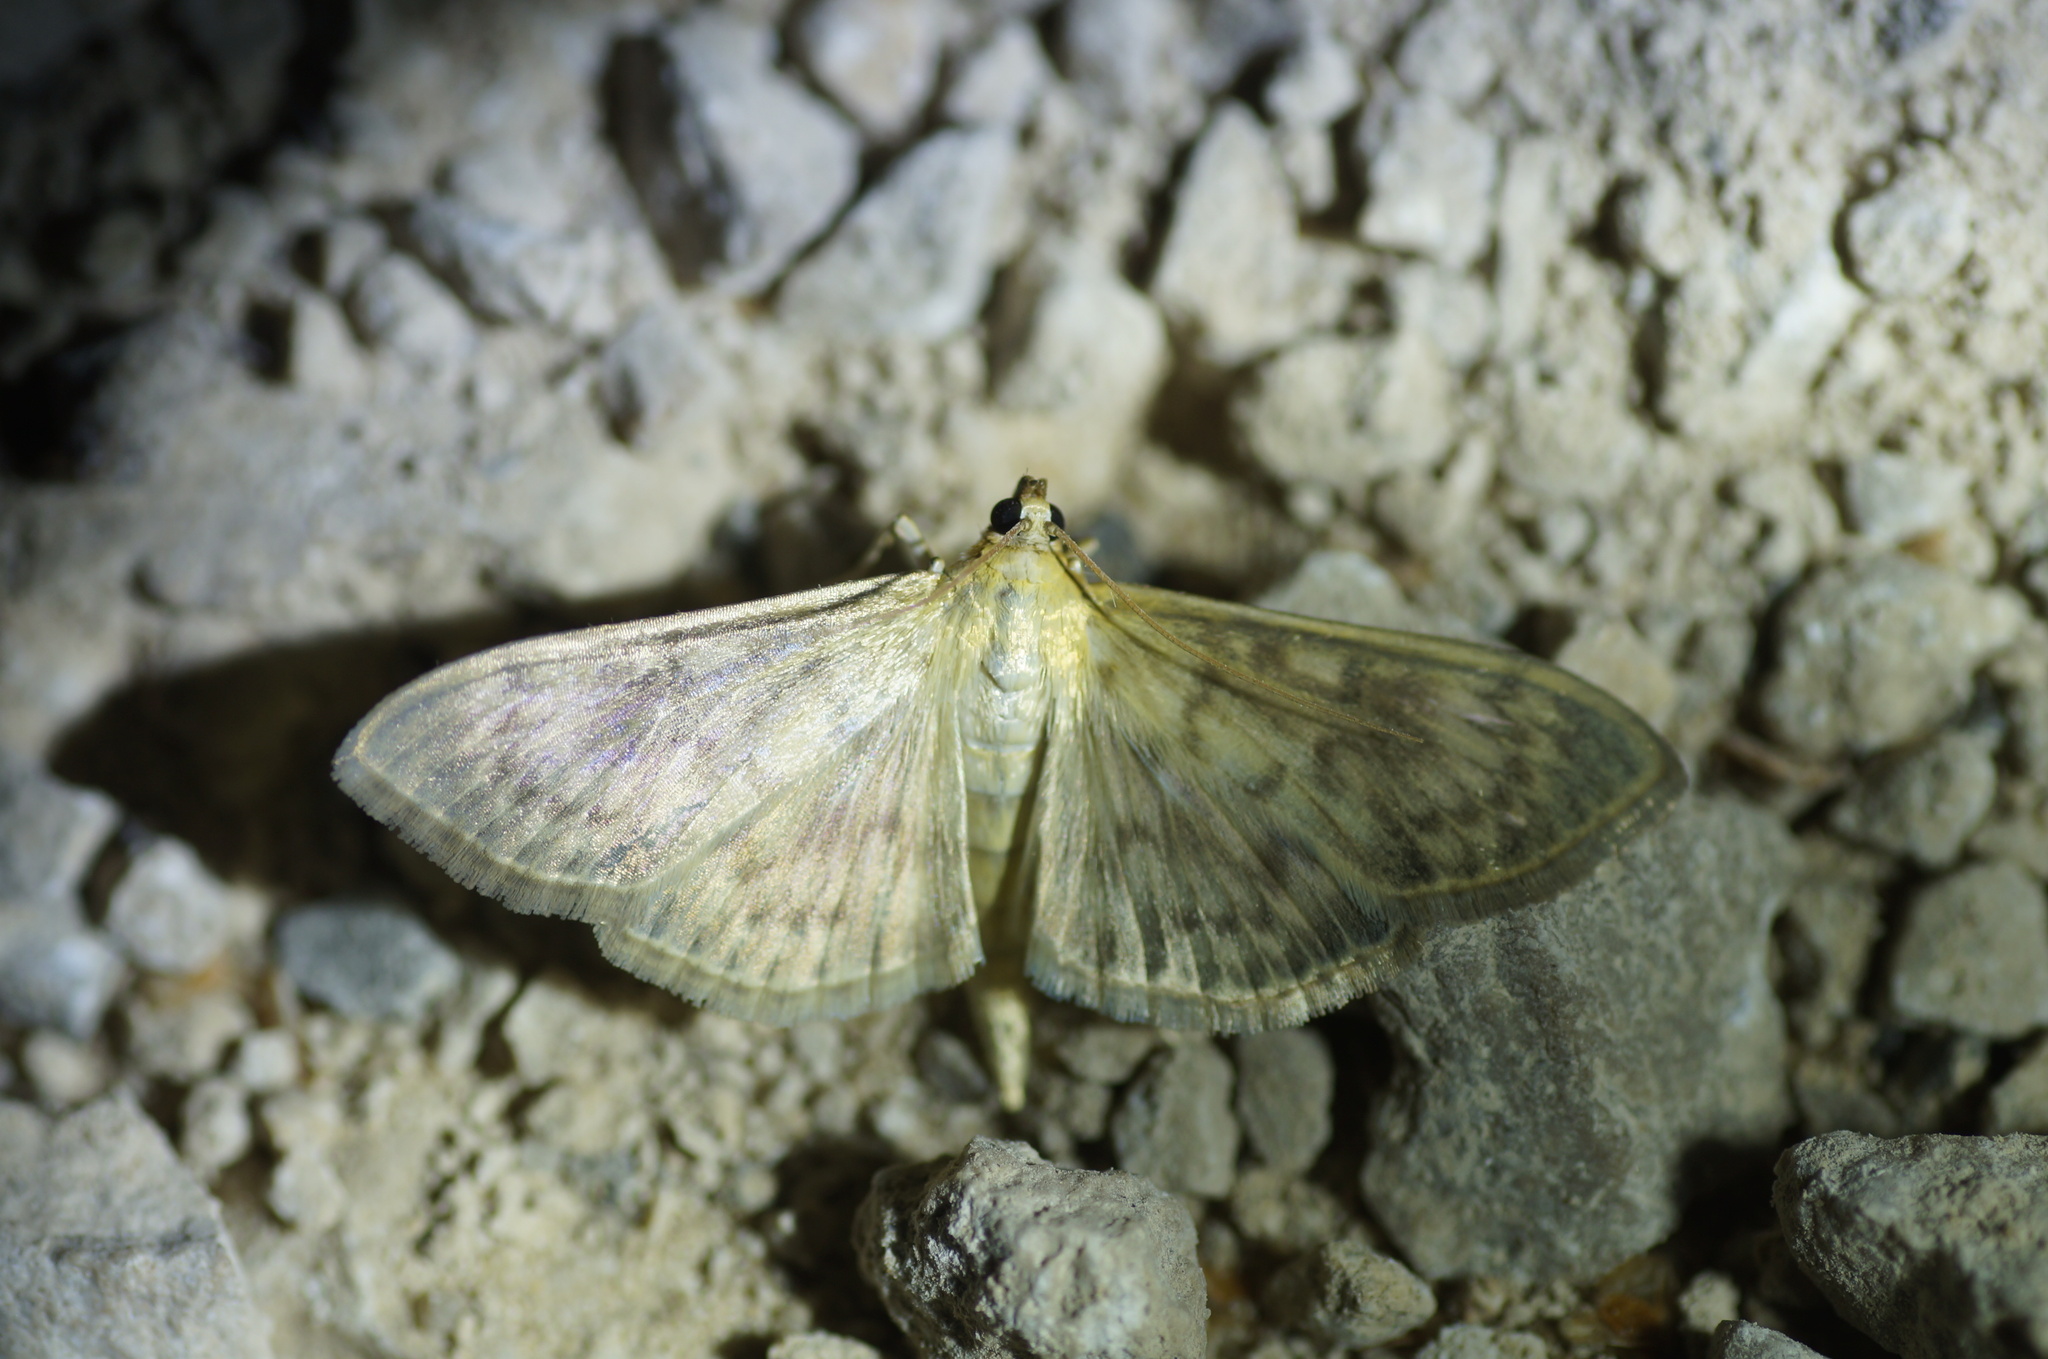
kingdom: Animalia
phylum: Arthropoda
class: Insecta
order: Lepidoptera
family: Crambidae
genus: Patania
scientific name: Patania ruralis
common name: Mother of pearl
